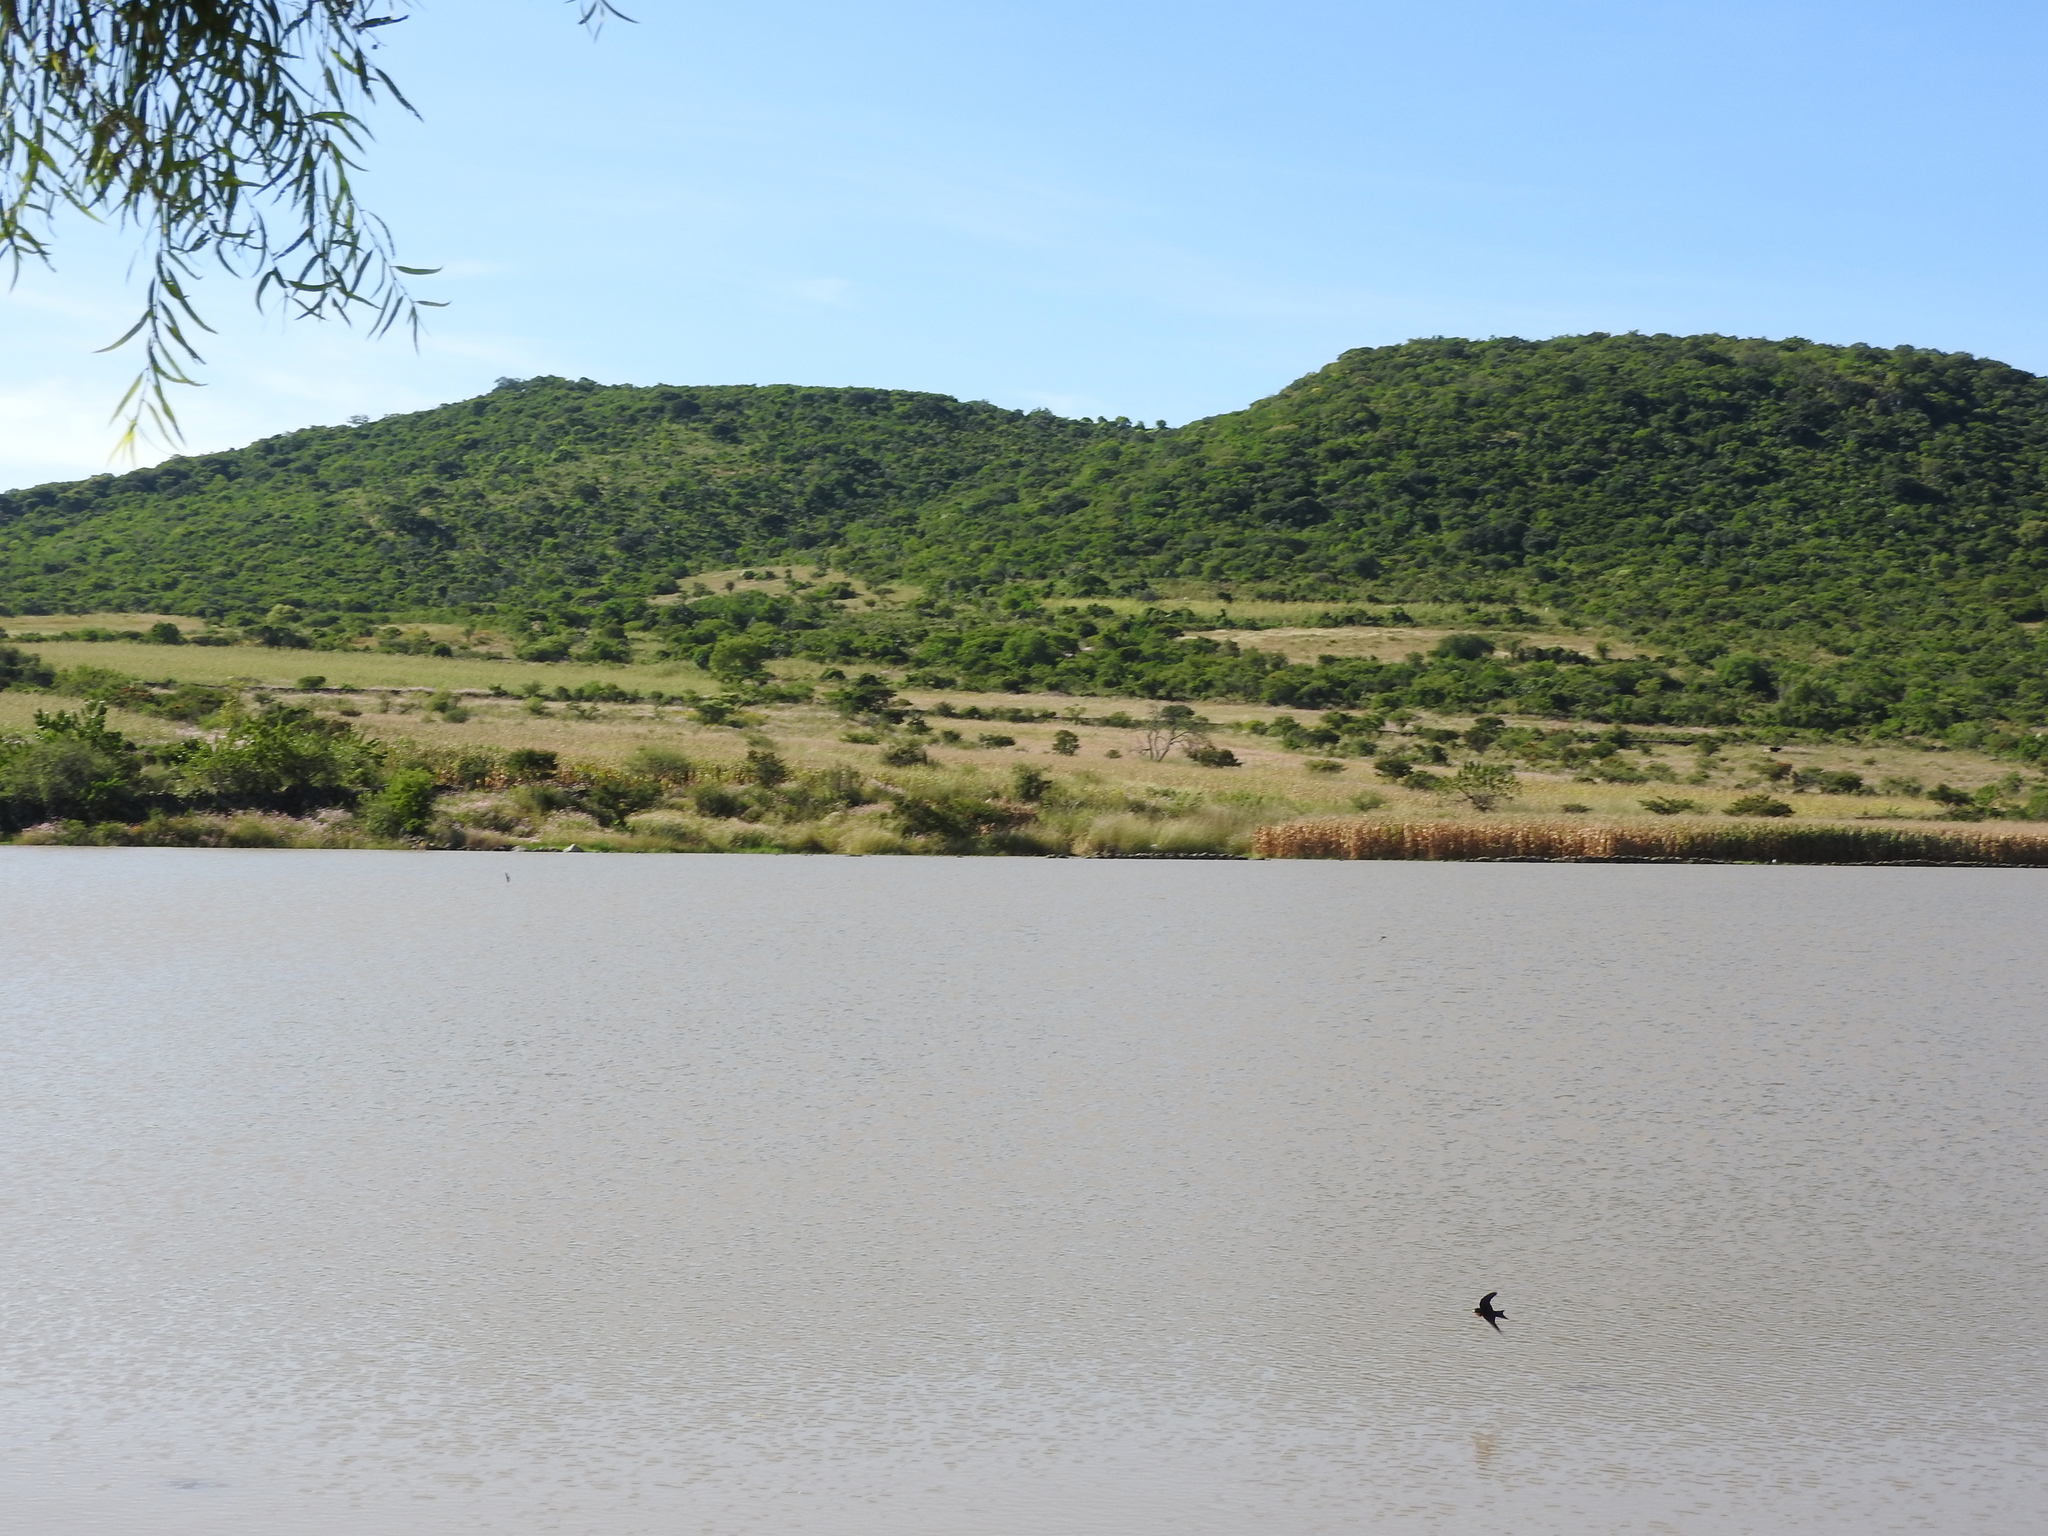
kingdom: Animalia
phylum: Chordata
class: Aves
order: Passeriformes
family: Hirundinidae
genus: Hirundo
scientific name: Hirundo rustica
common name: Barn swallow
